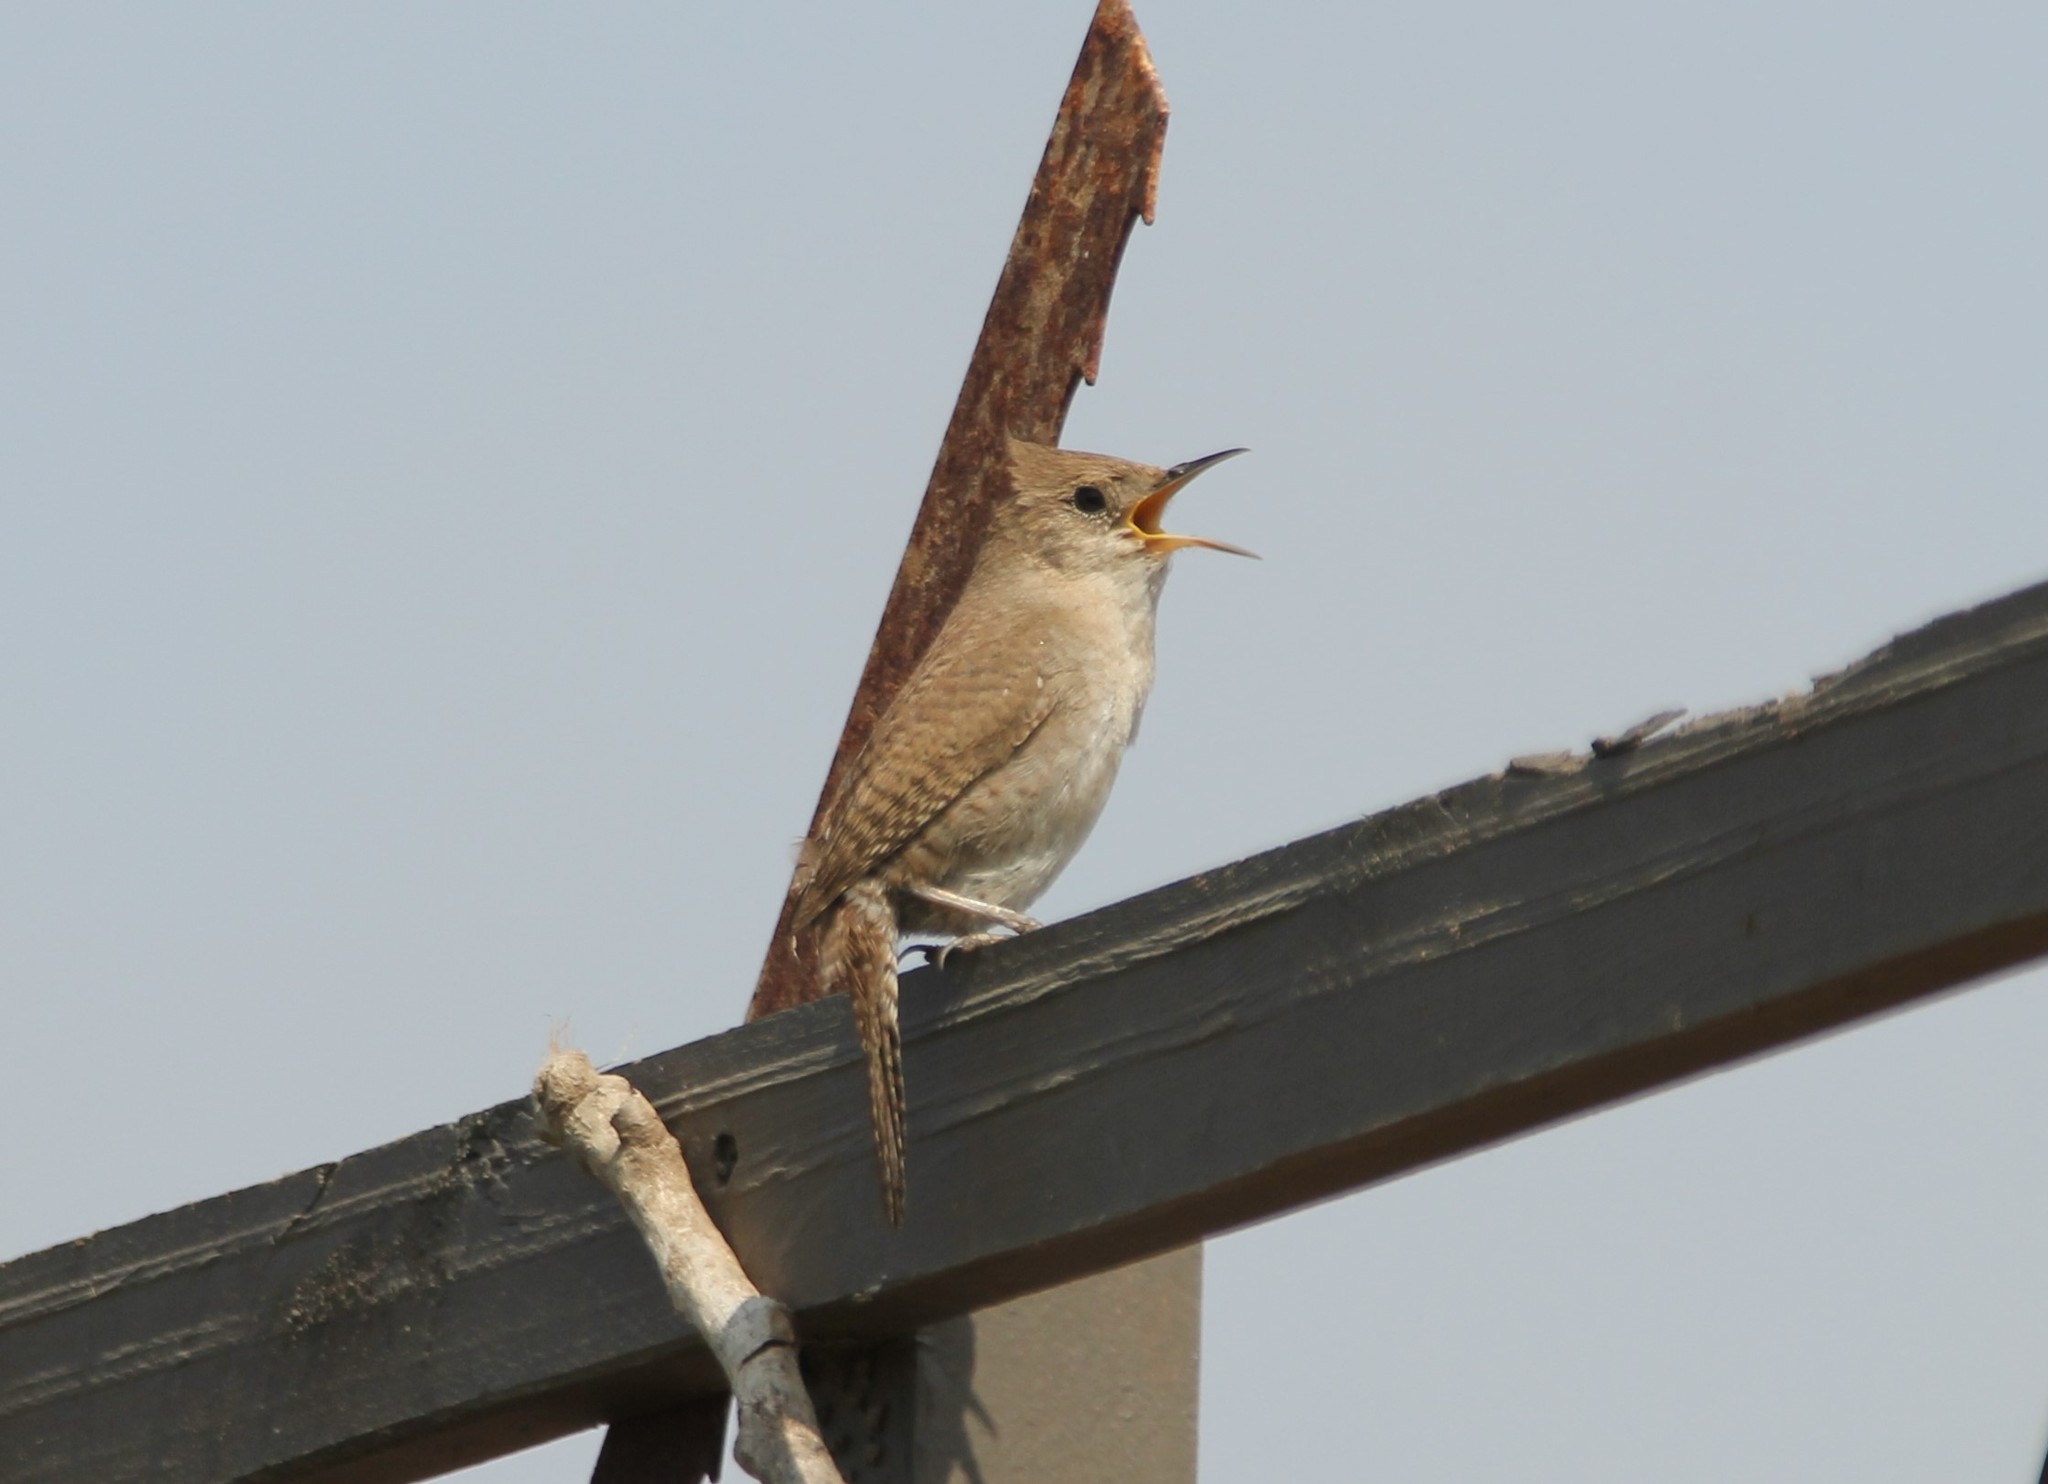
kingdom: Animalia
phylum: Chordata
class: Aves
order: Passeriformes
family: Troglodytidae
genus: Troglodytes
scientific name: Troglodytes aedon
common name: House wren
